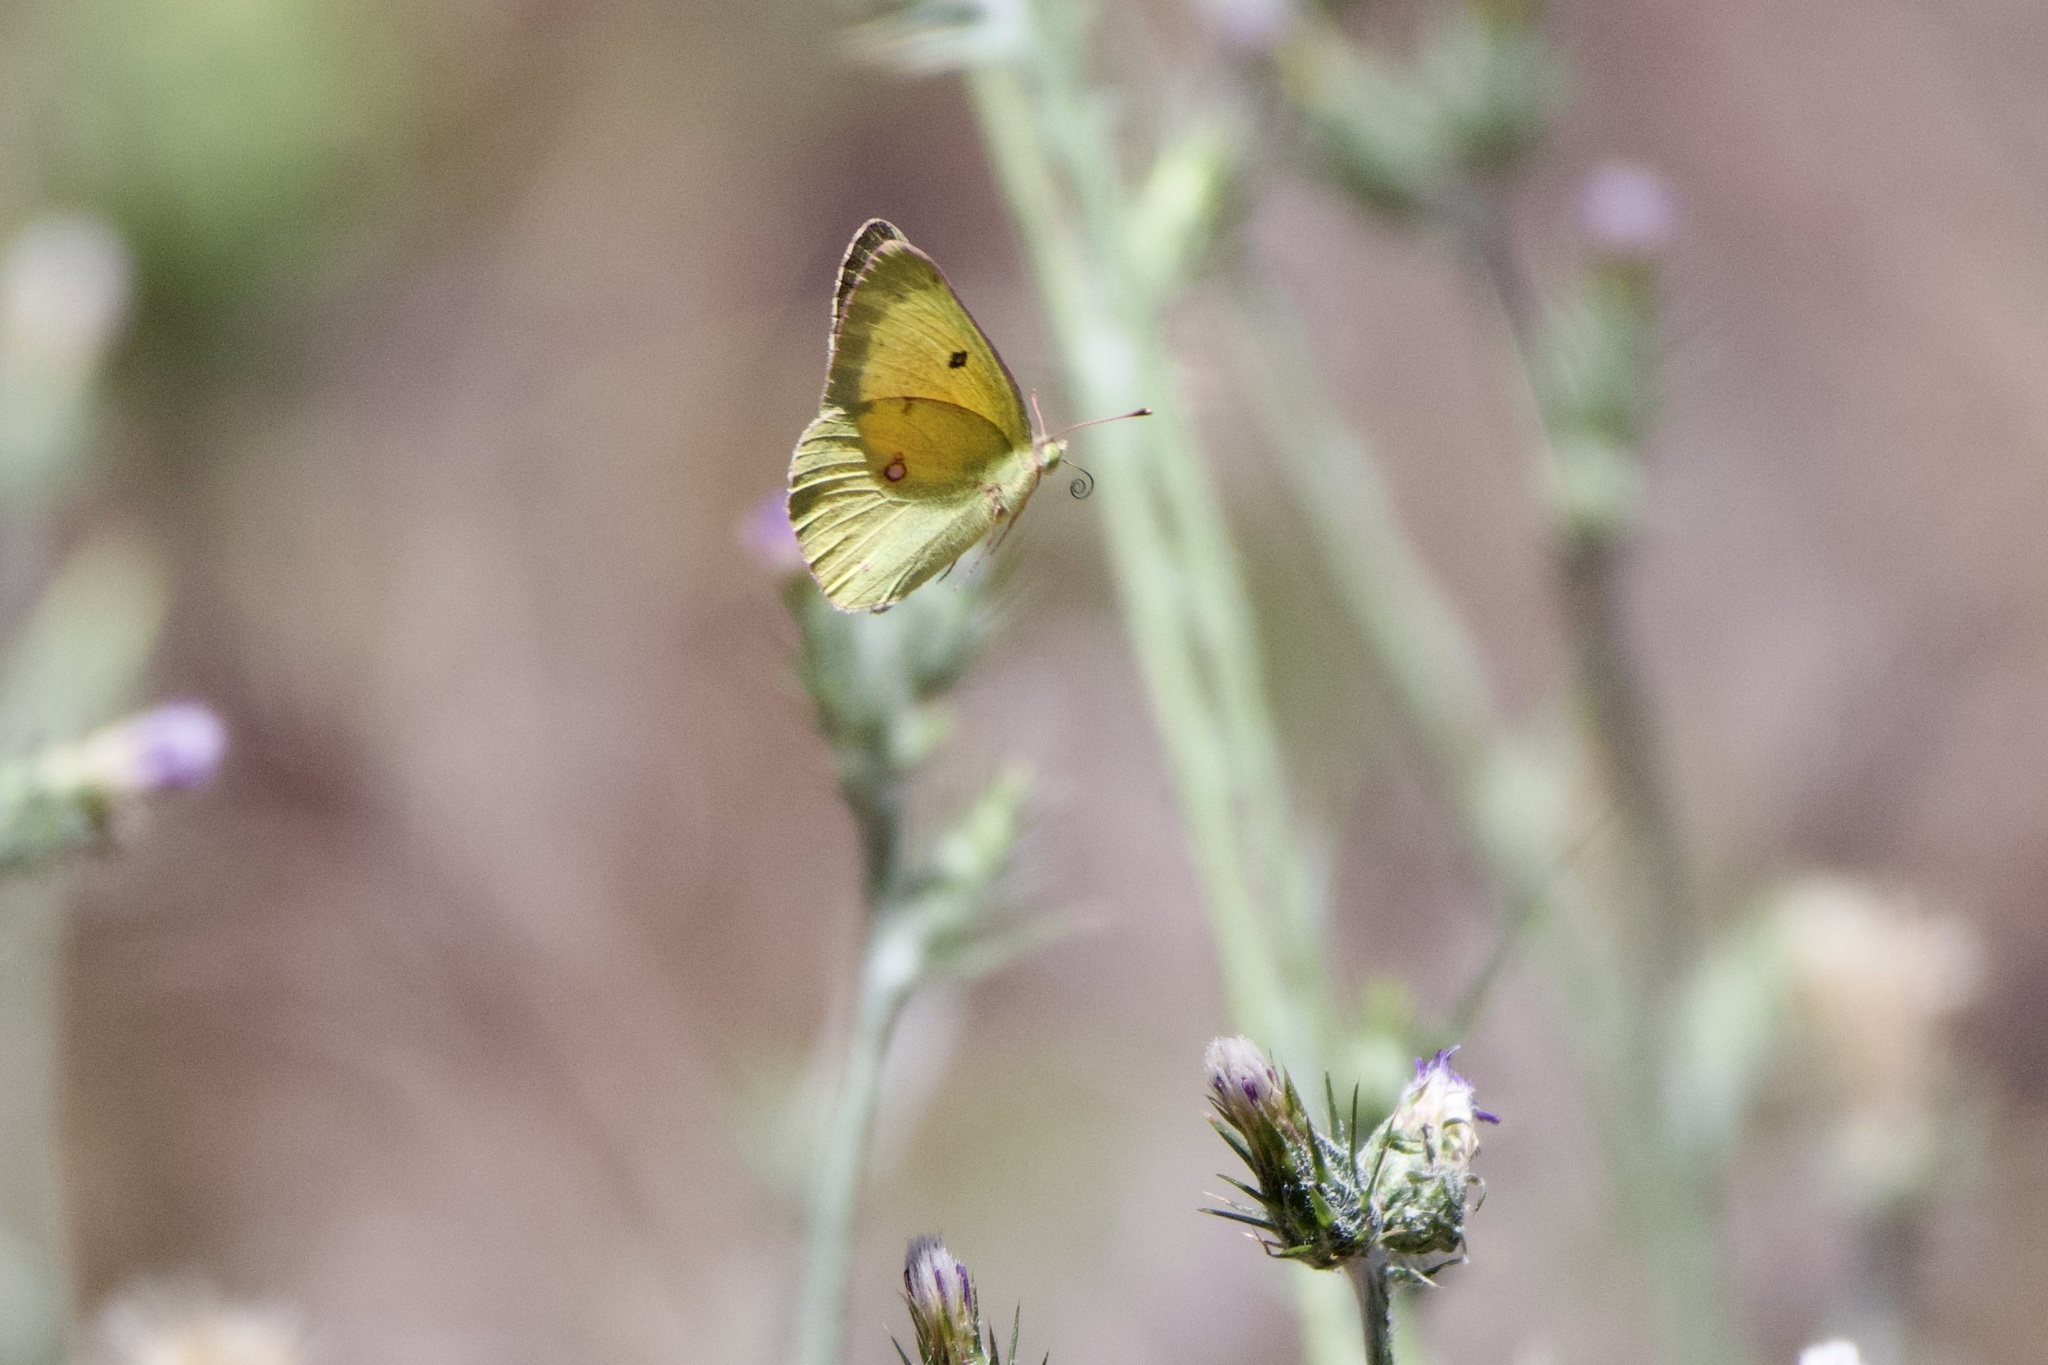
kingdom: Animalia
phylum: Arthropoda
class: Insecta
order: Lepidoptera
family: Pieridae
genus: Colias
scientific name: Colias eurytheme
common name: Alfalfa butterfly
